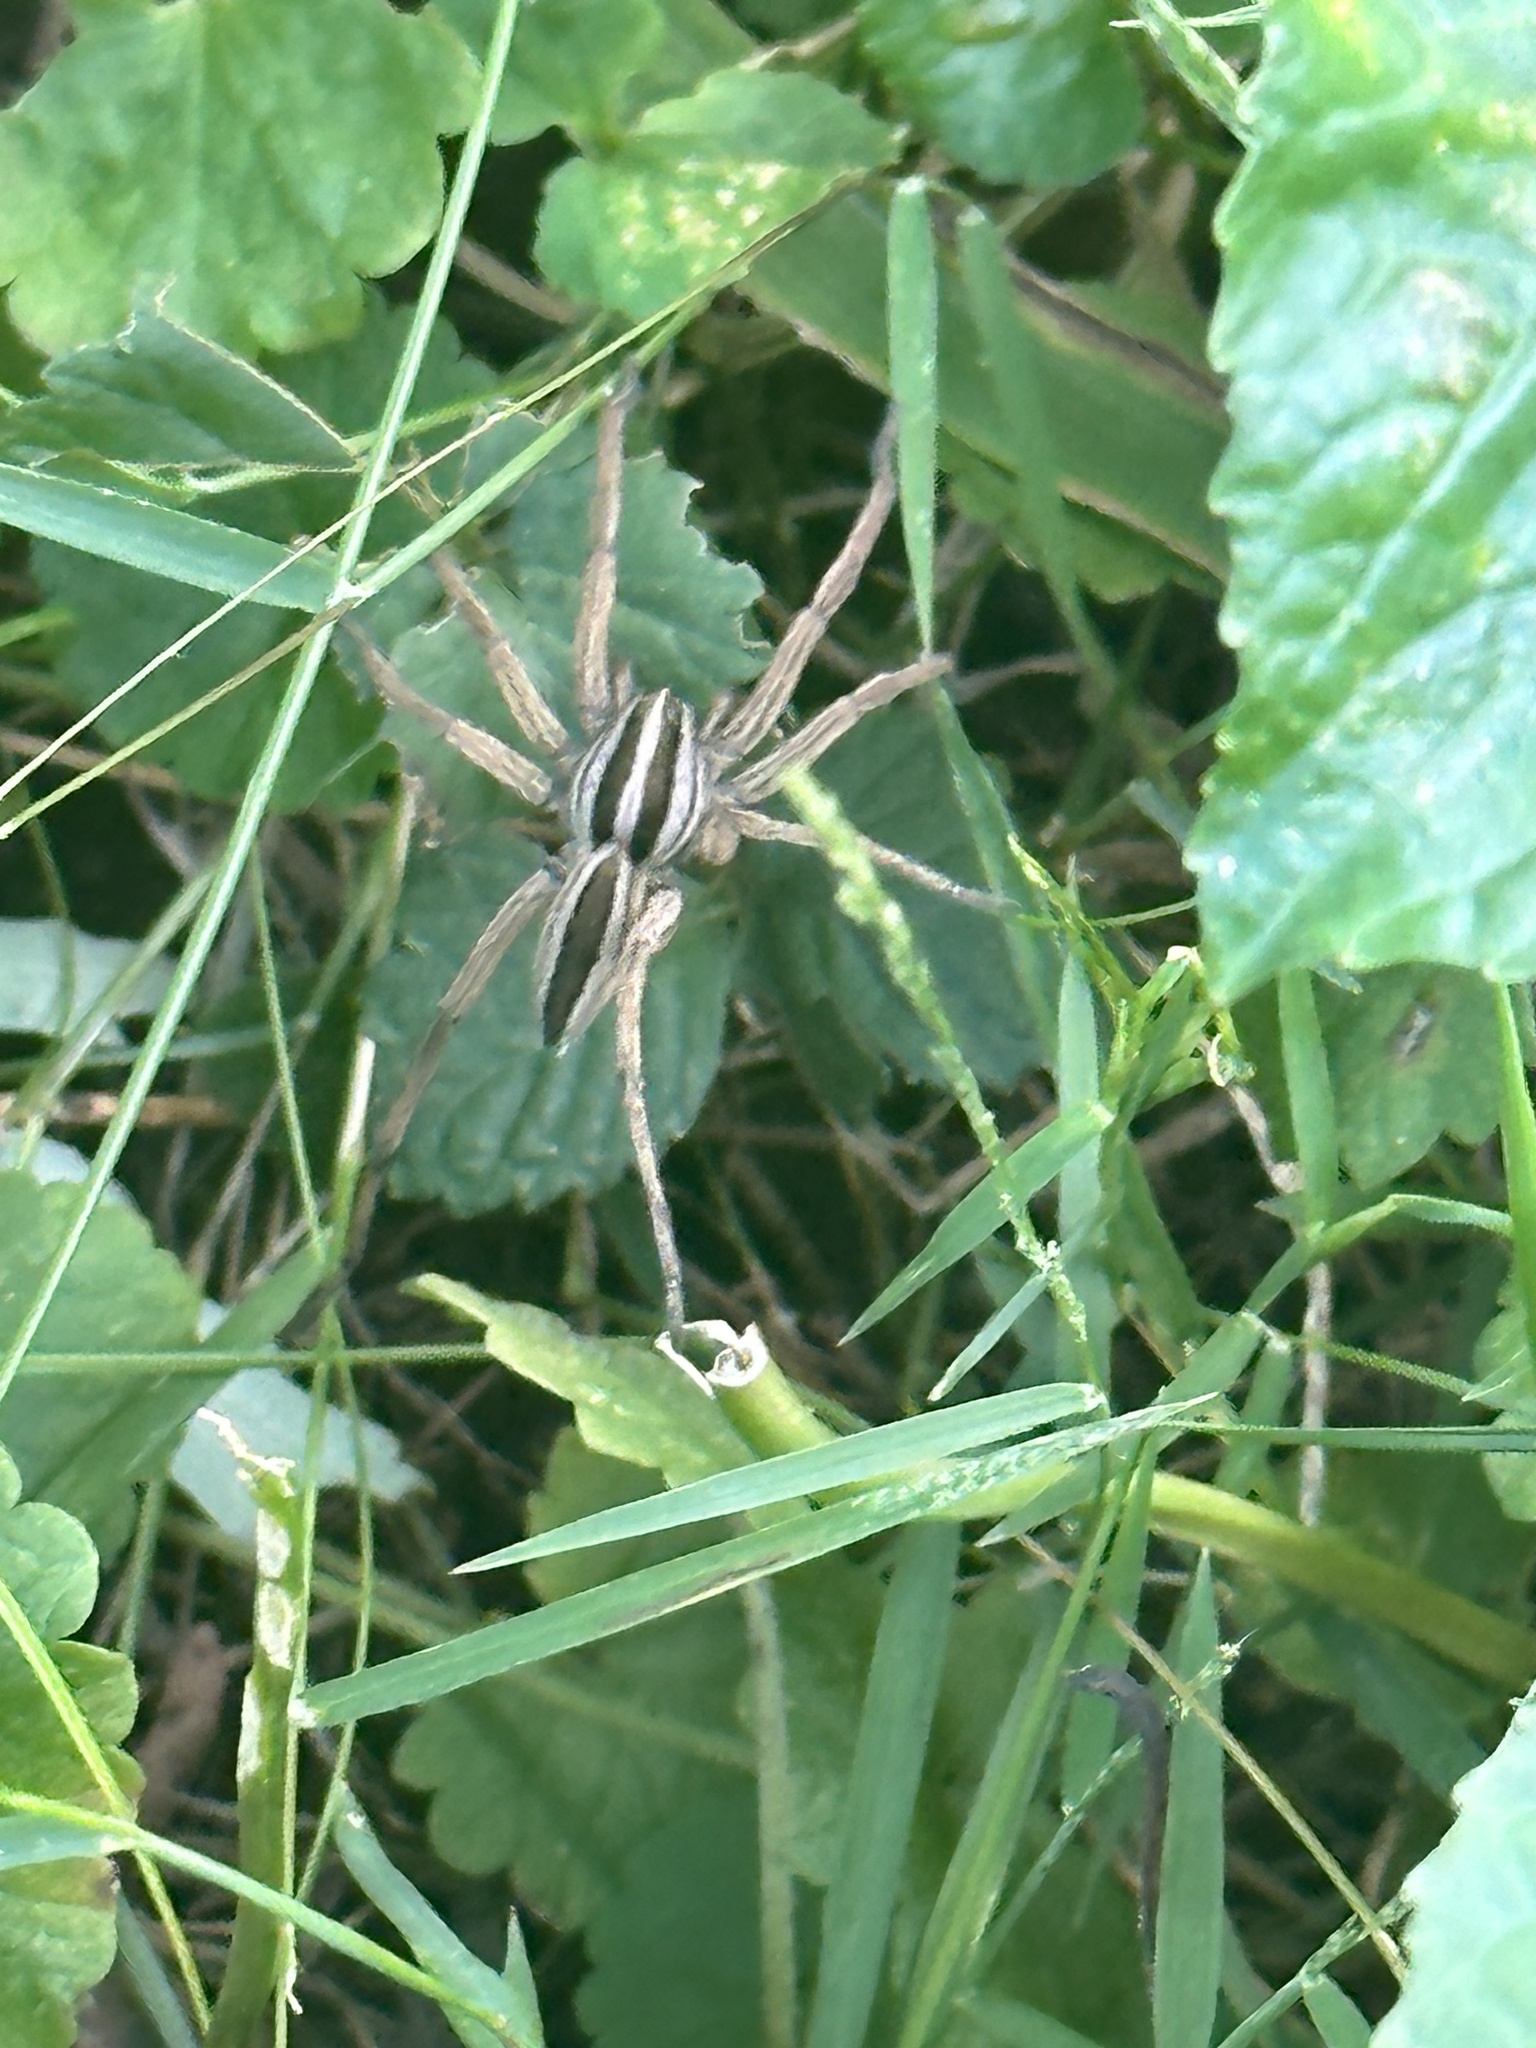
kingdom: Animalia
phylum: Arthropoda
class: Arachnida
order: Araneae
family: Lycosidae
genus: Rabidosa
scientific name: Rabidosa punctulata
